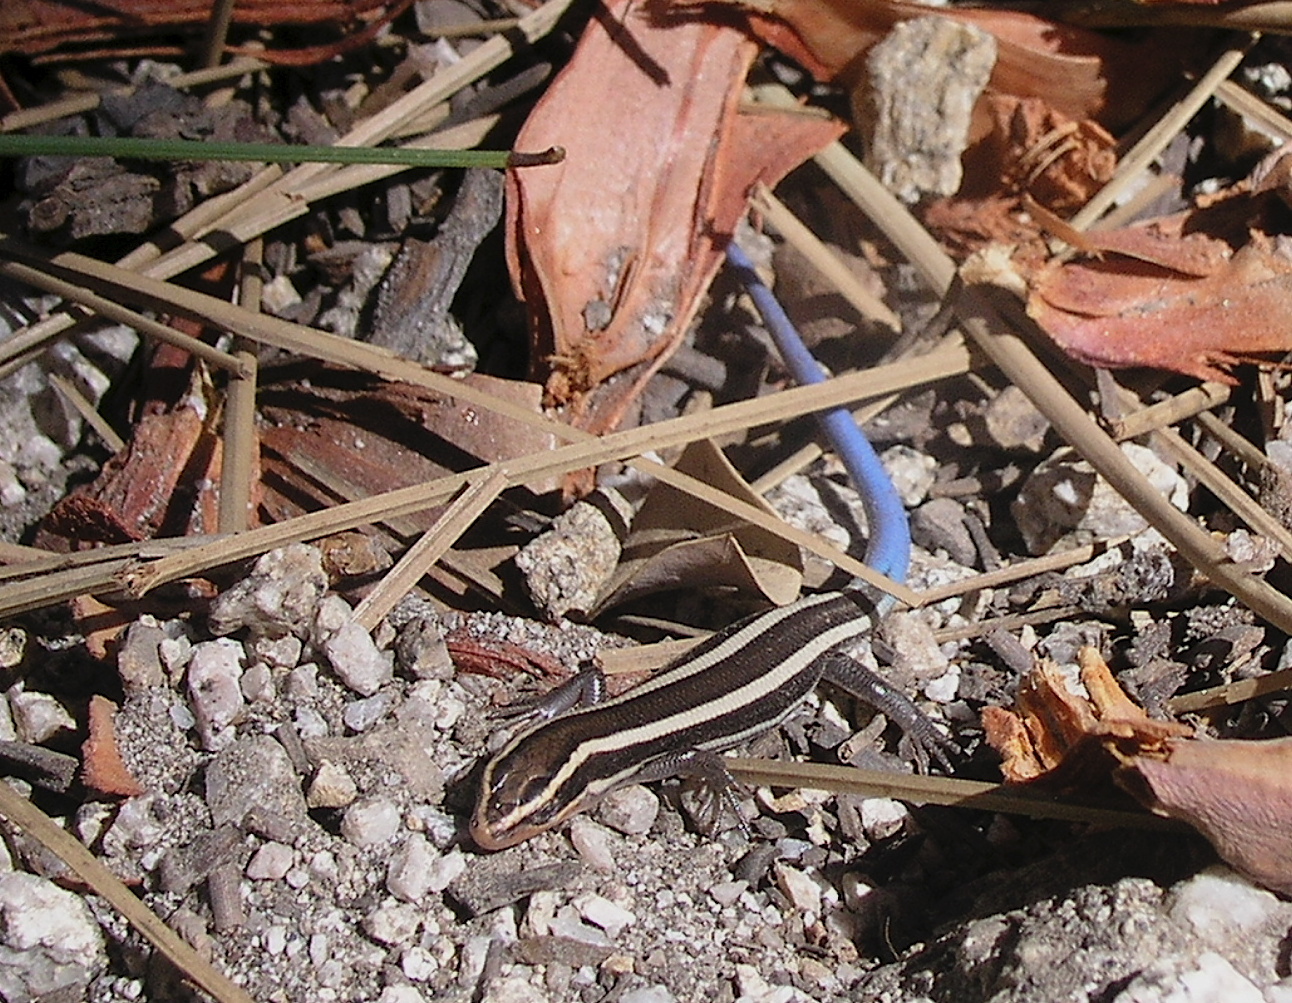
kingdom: Animalia
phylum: Chordata
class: Squamata
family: Scincidae
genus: Plestiodon
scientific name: Plestiodon skiltonianus
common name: Coronado island skink [interparietalis]
